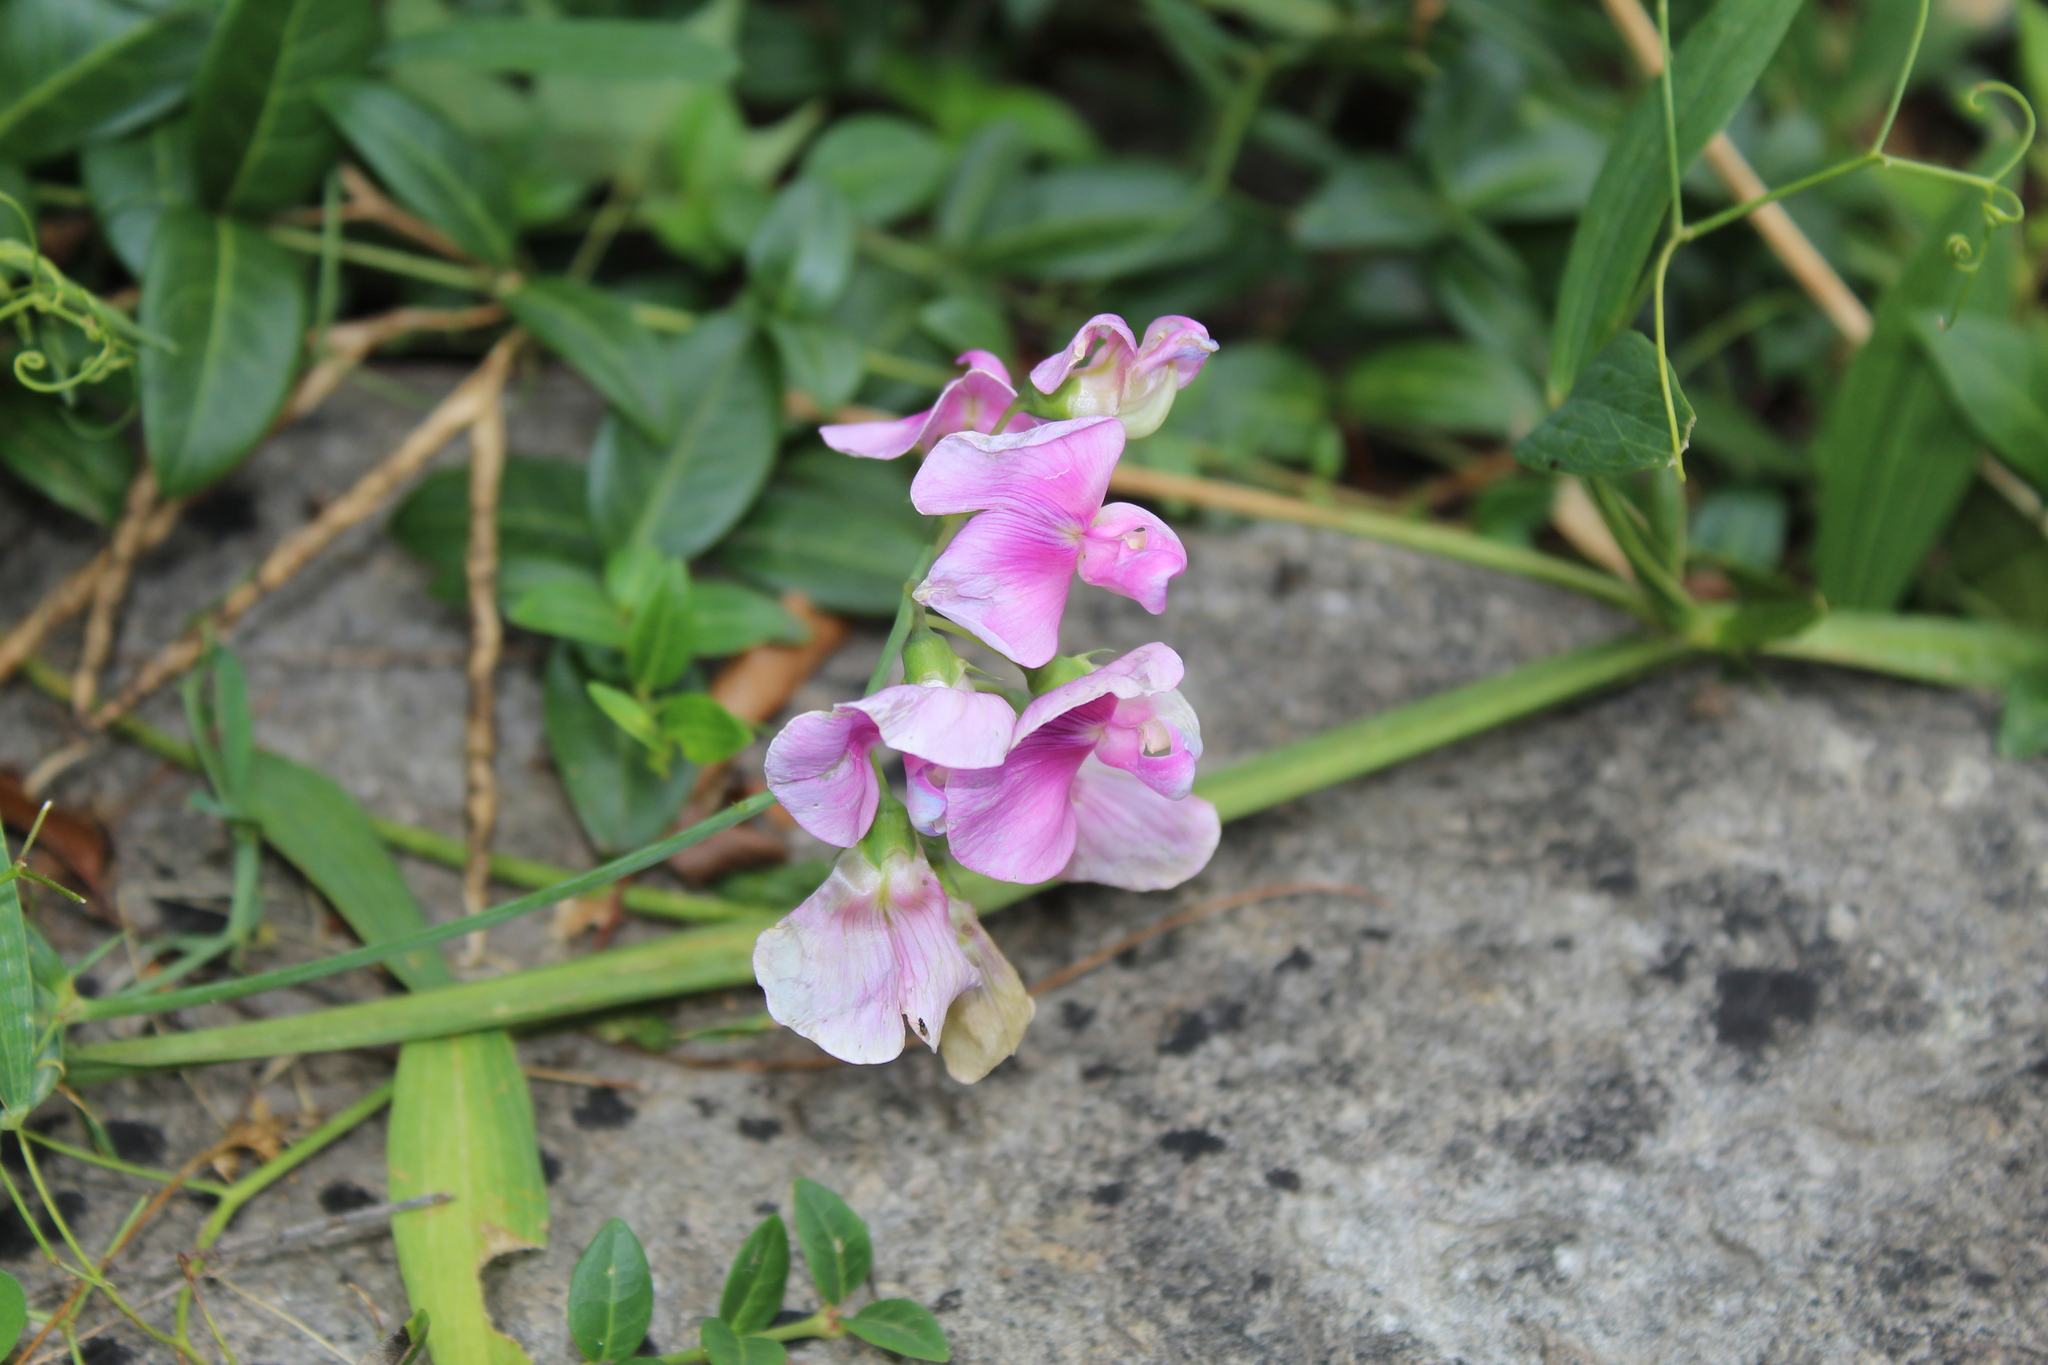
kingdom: Plantae
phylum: Tracheophyta
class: Magnoliopsida
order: Fabales
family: Fabaceae
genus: Lathyrus
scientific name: Lathyrus latifolius
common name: Perennial pea
